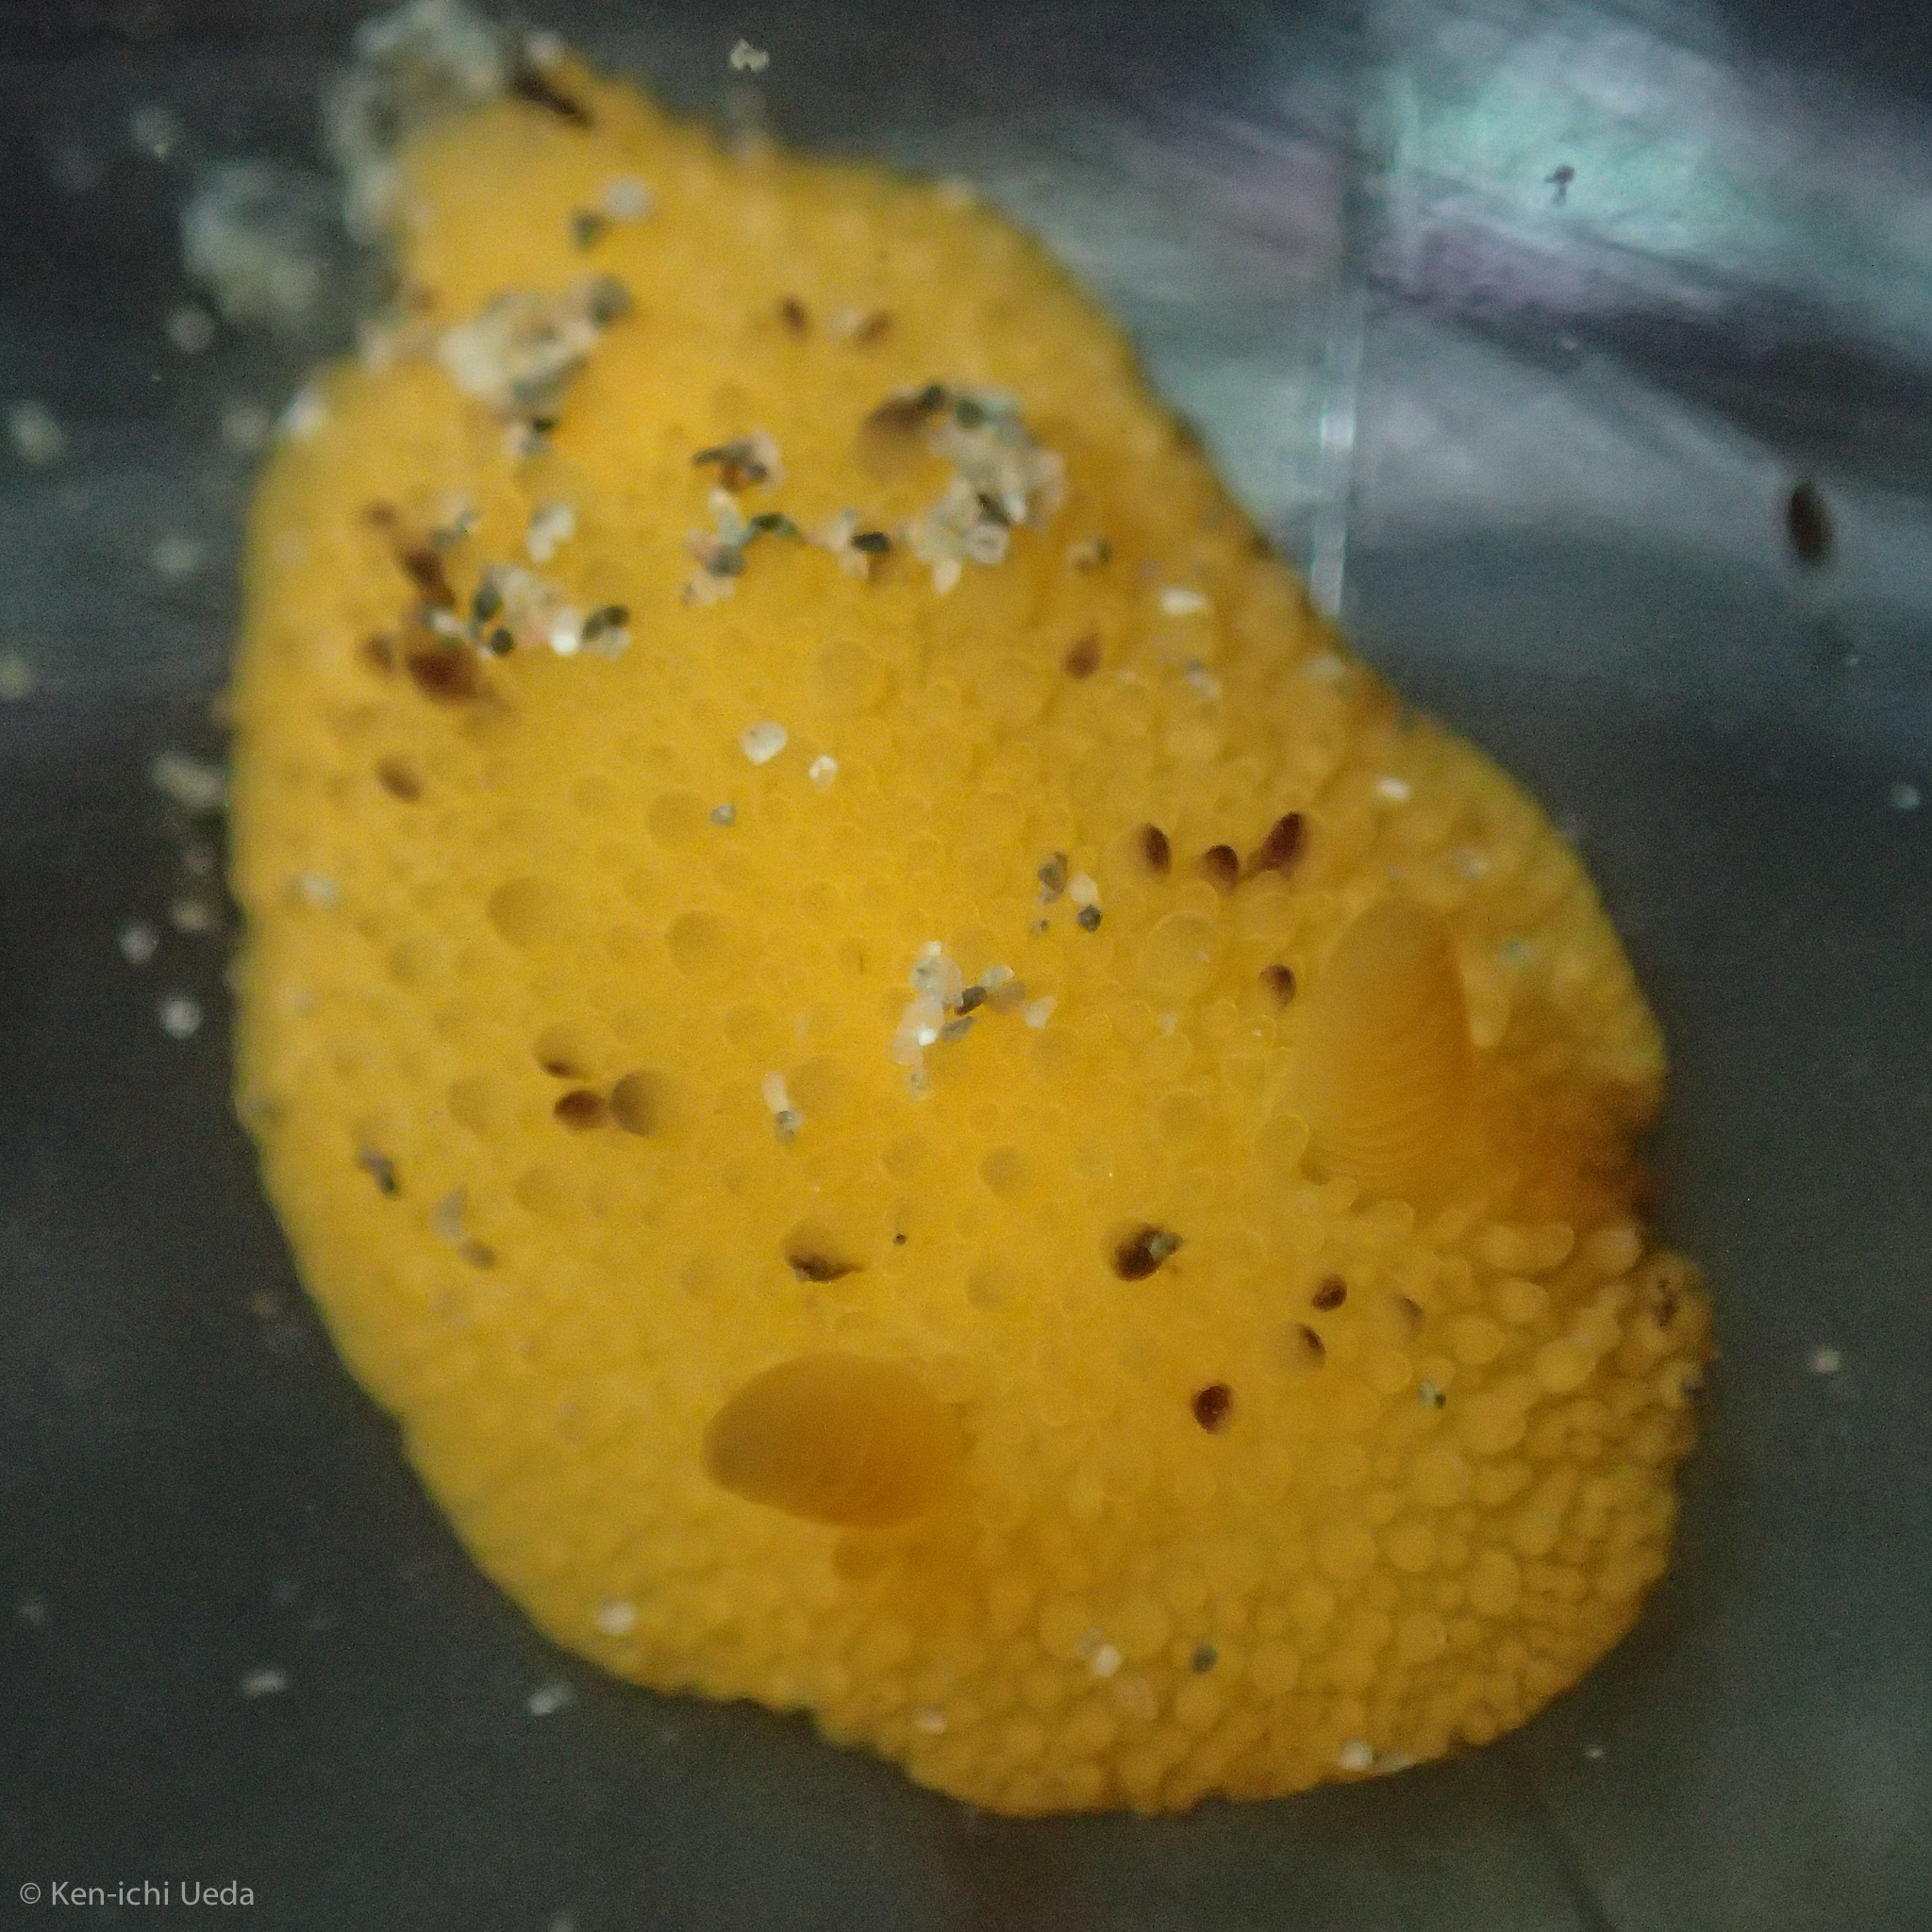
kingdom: Animalia
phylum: Mollusca
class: Gastropoda
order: Nudibranchia
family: Dorididae
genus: Doris
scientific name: Doris montereyensis
